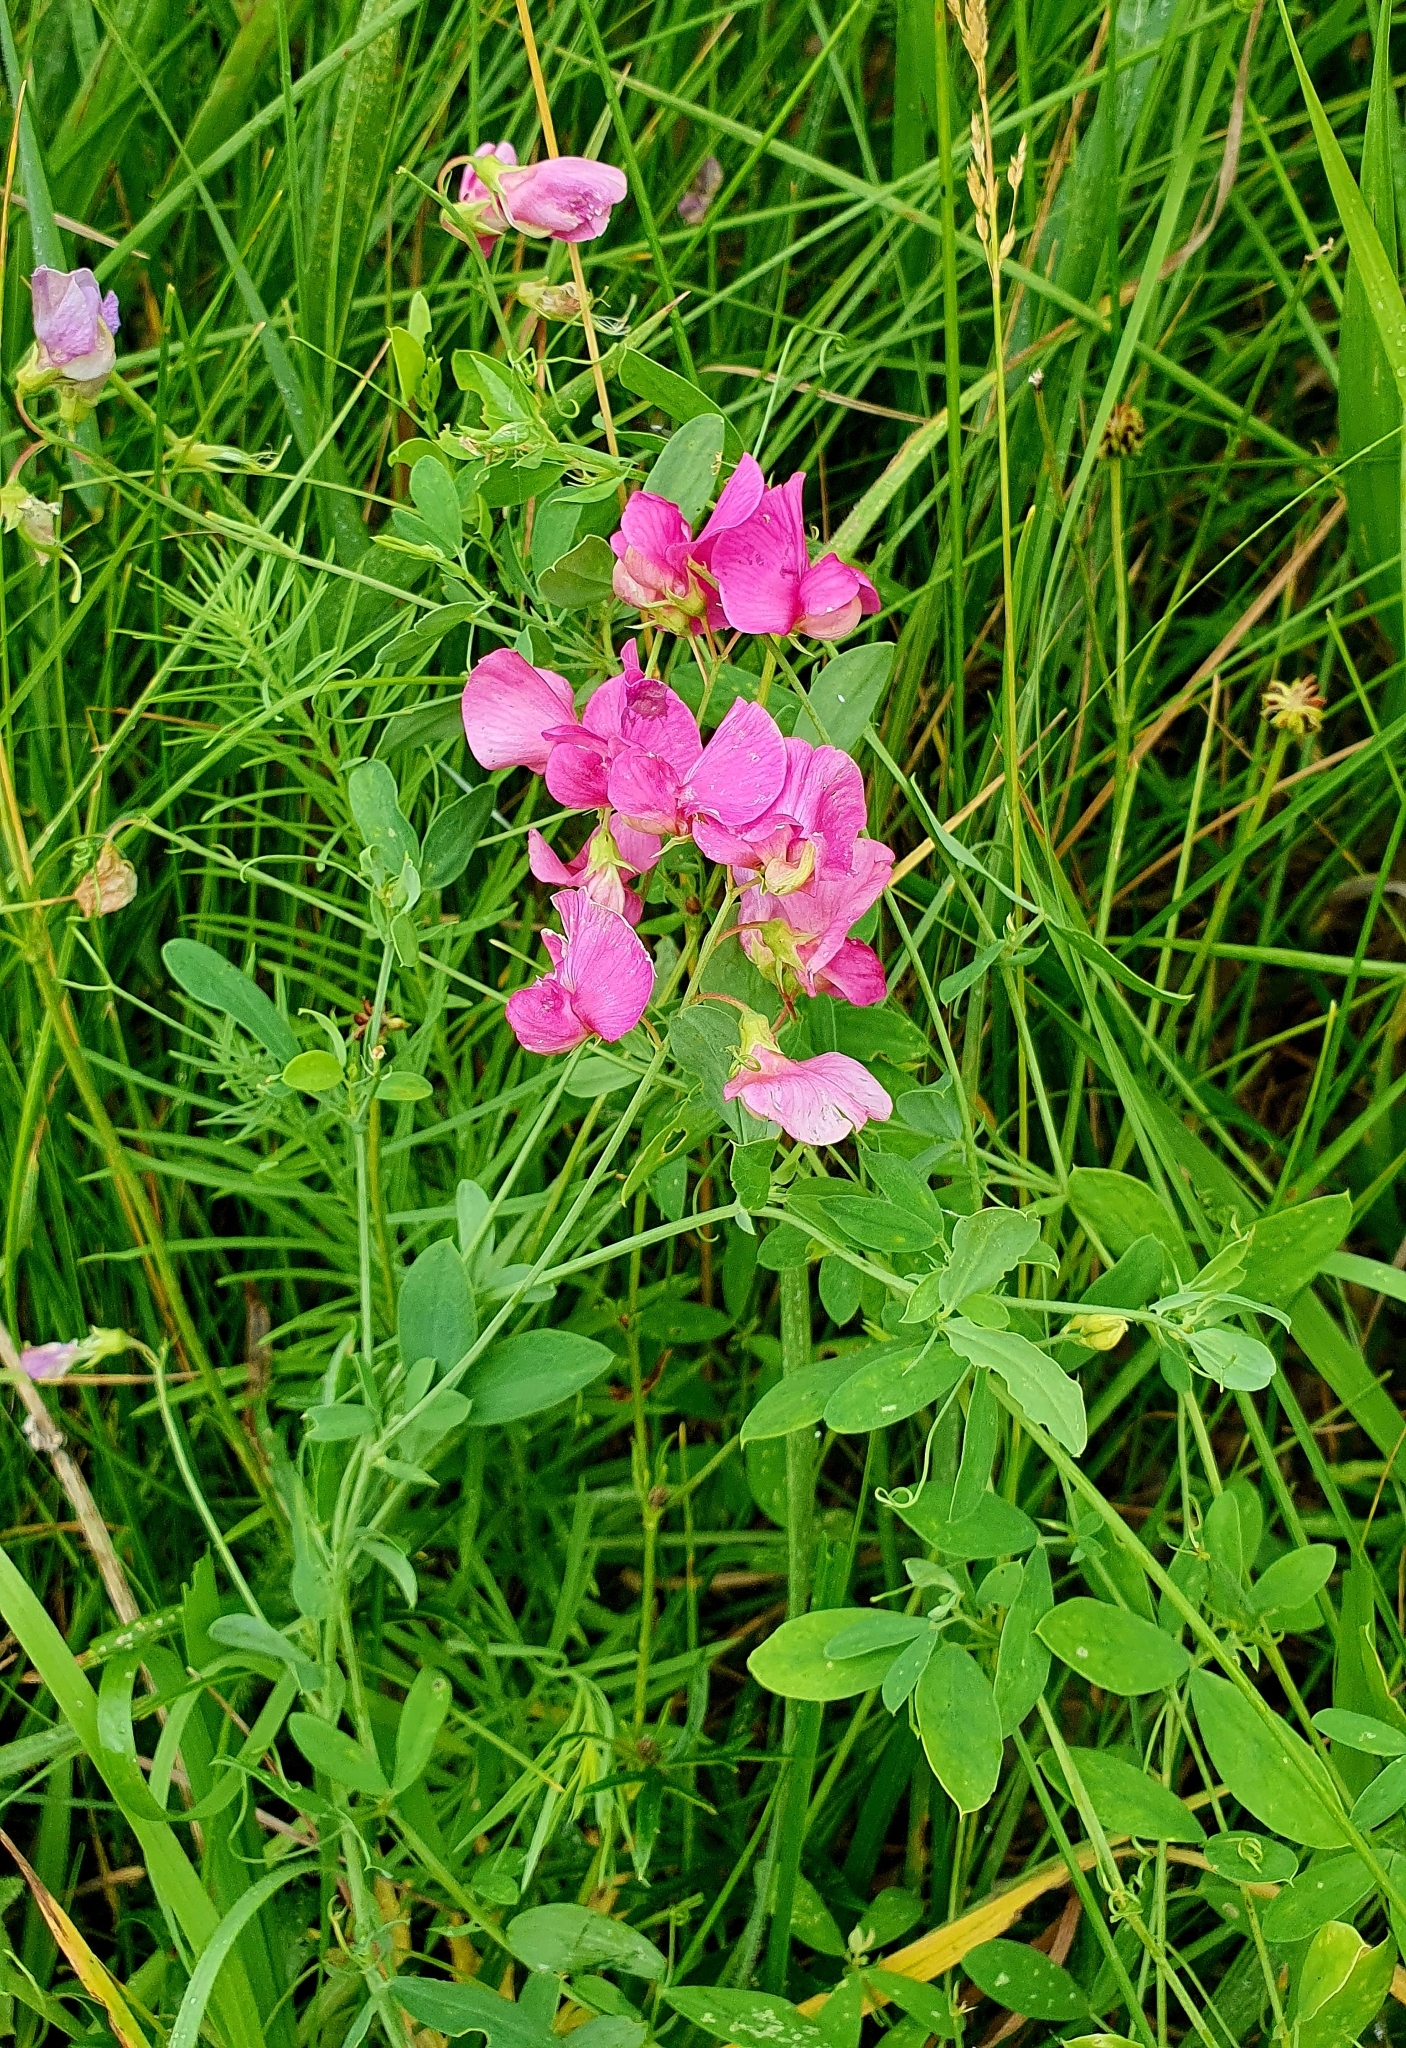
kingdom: Plantae
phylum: Tracheophyta
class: Magnoliopsida
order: Fabales
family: Fabaceae
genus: Lathyrus
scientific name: Lathyrus tuberosus
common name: Tuberous pea
